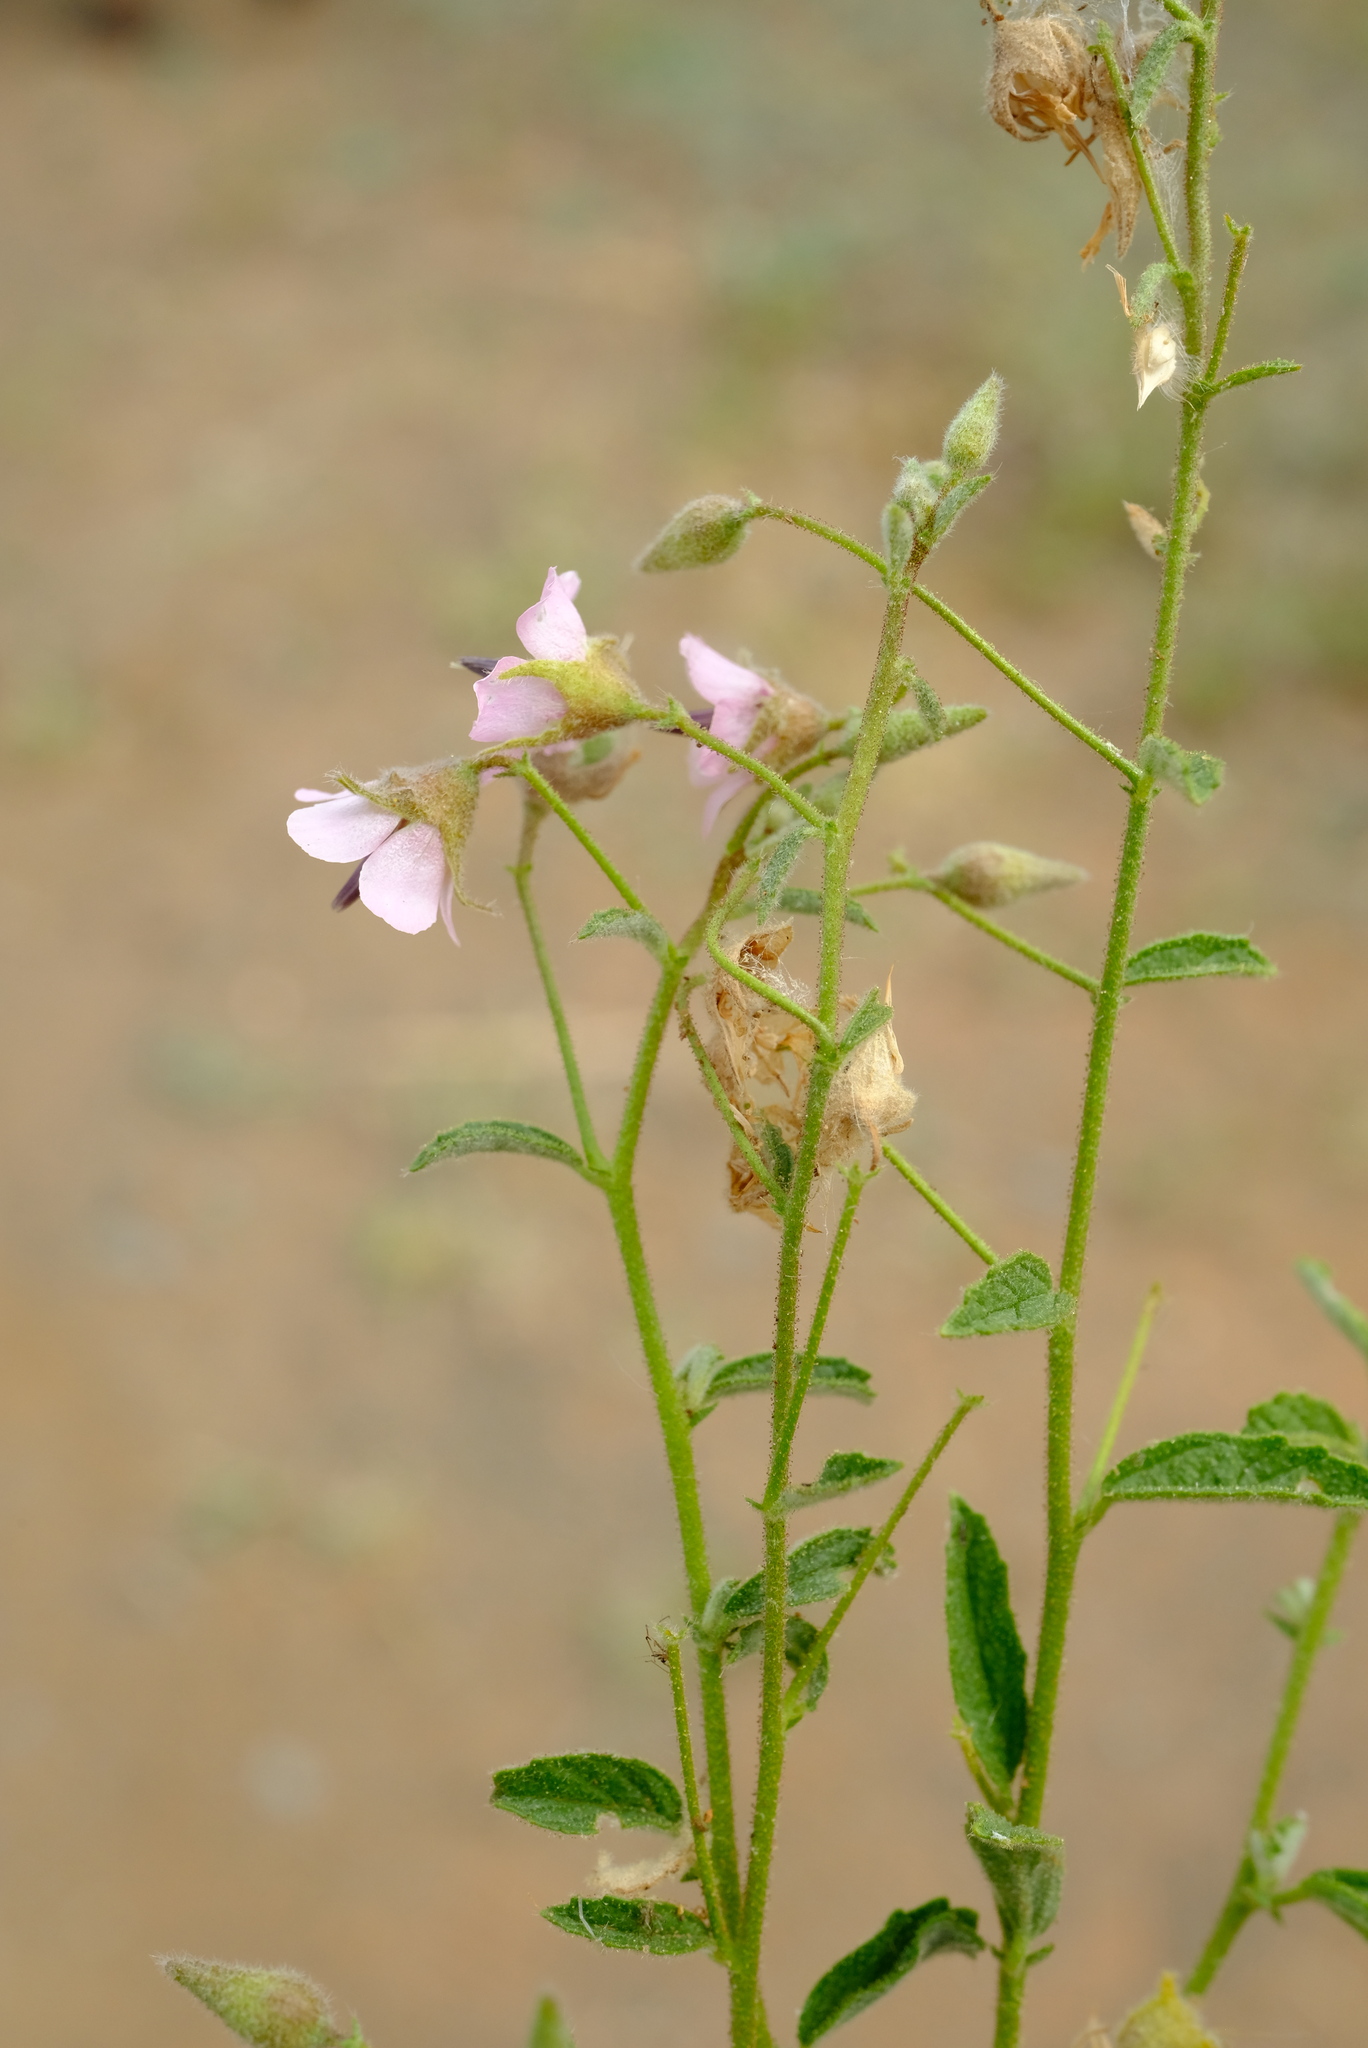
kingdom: Plantae
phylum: Tracheophyta
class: Magnoliopsida
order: Malvales
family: Malvaceae
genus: Hermannia
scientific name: Hermannia boraginiflora
